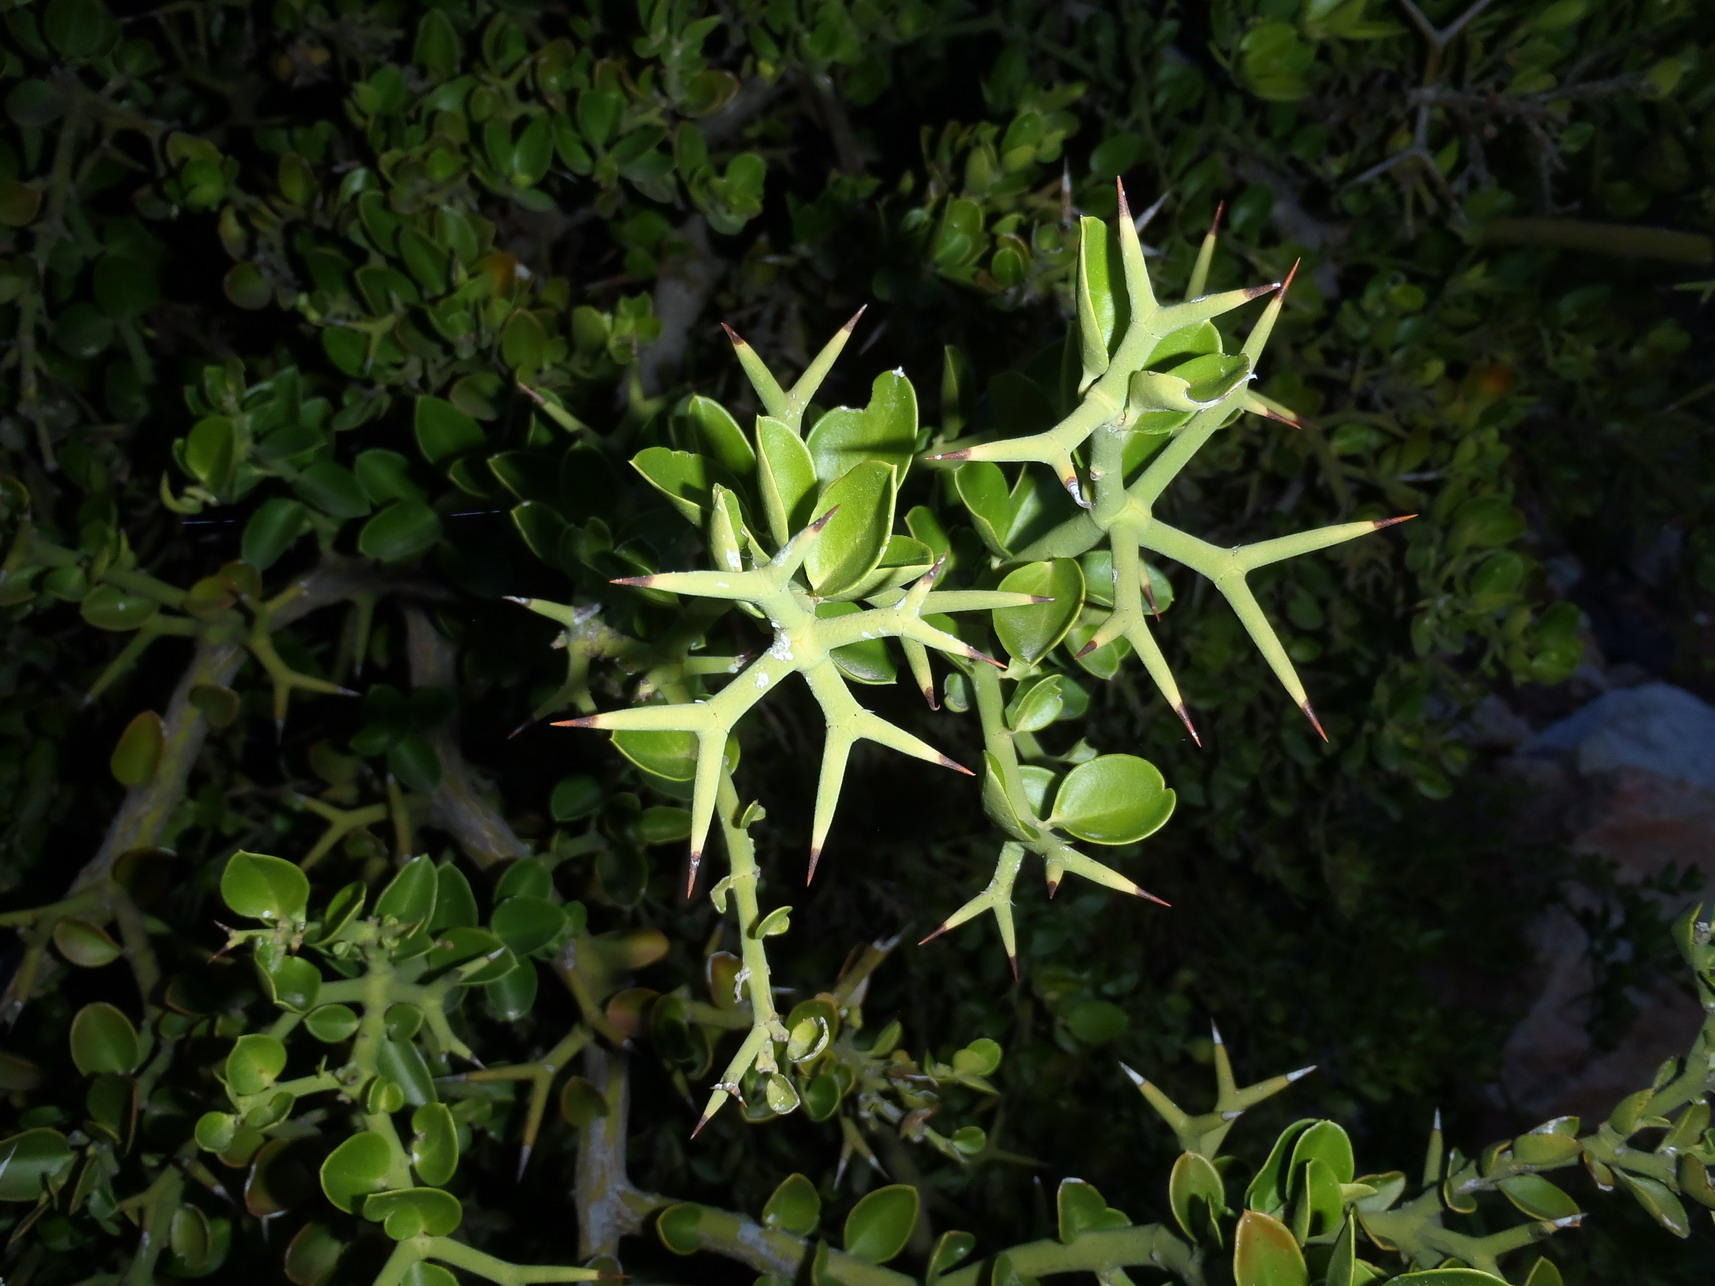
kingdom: Plantae
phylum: Tracheophyta
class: Magnoliopsida
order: Gentianales
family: Apocynaceae
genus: Carissa
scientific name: Carissa haematocarpa
